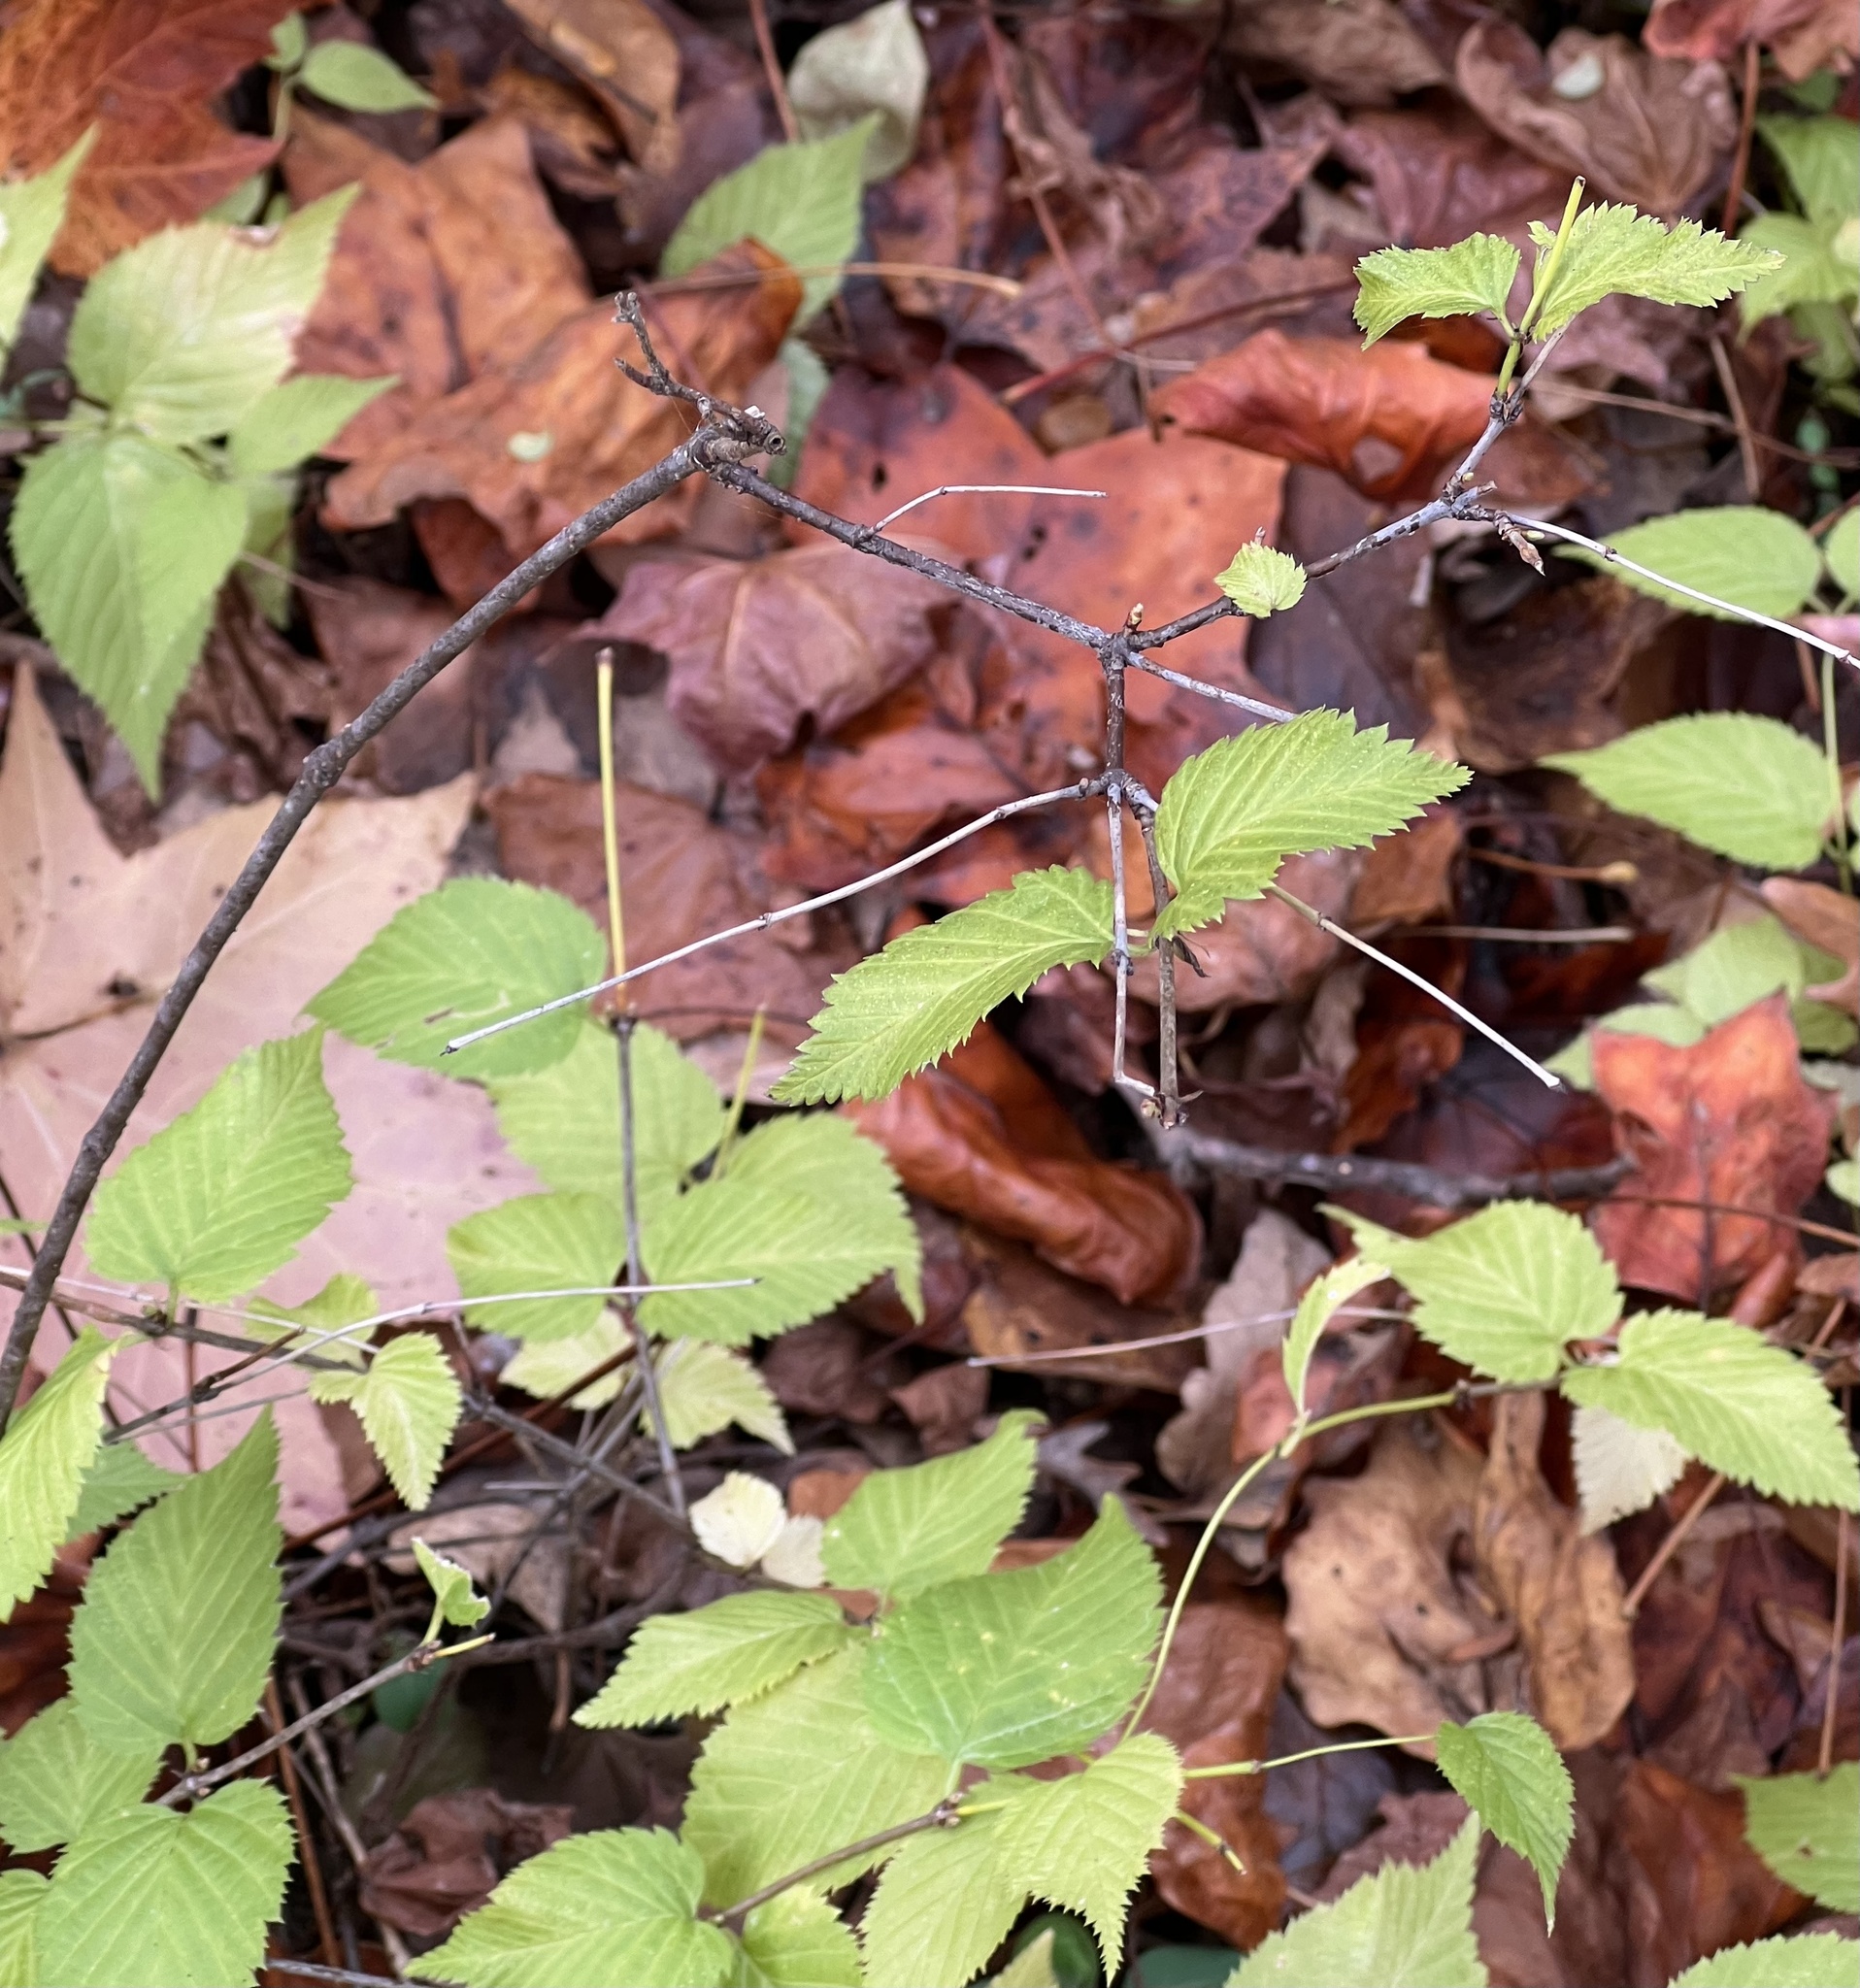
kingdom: Plantae
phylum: Tracheophyta
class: Magnoliopsida
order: Rosales
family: Rosaceae
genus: Rhodotypos
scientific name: Rhodotypos scandens
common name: Jetbead
